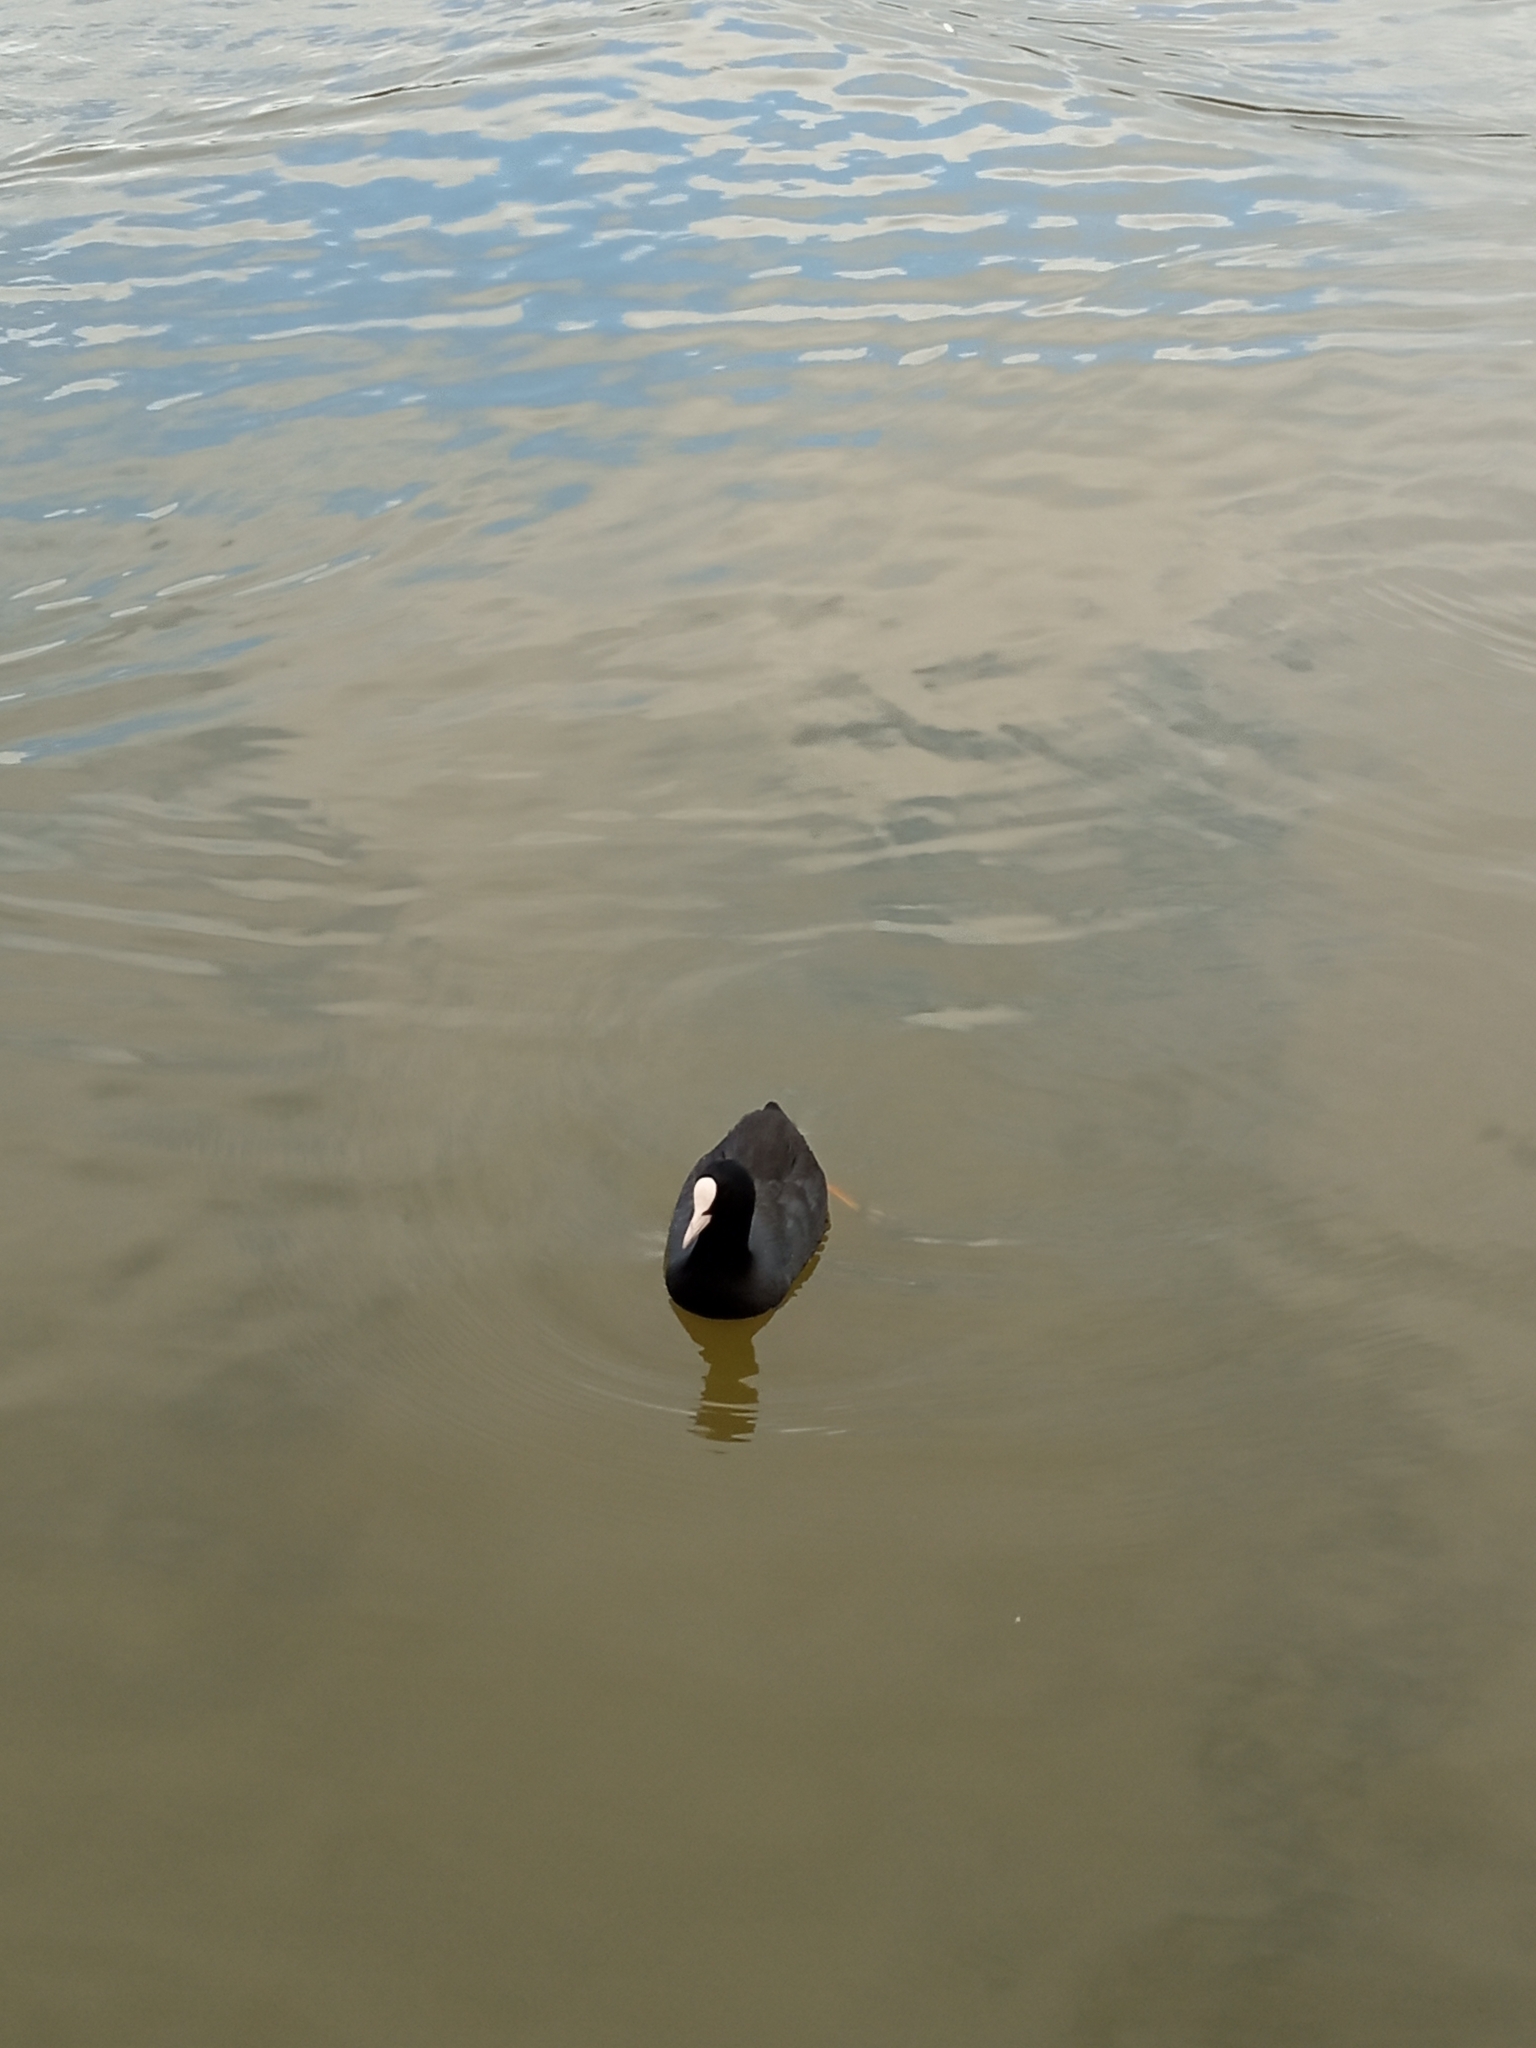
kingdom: Animalia
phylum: Chordata
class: Aves
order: Gruiformes
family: Rallidae
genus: Fulica
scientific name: Fulica atra
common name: Eurasian coot
